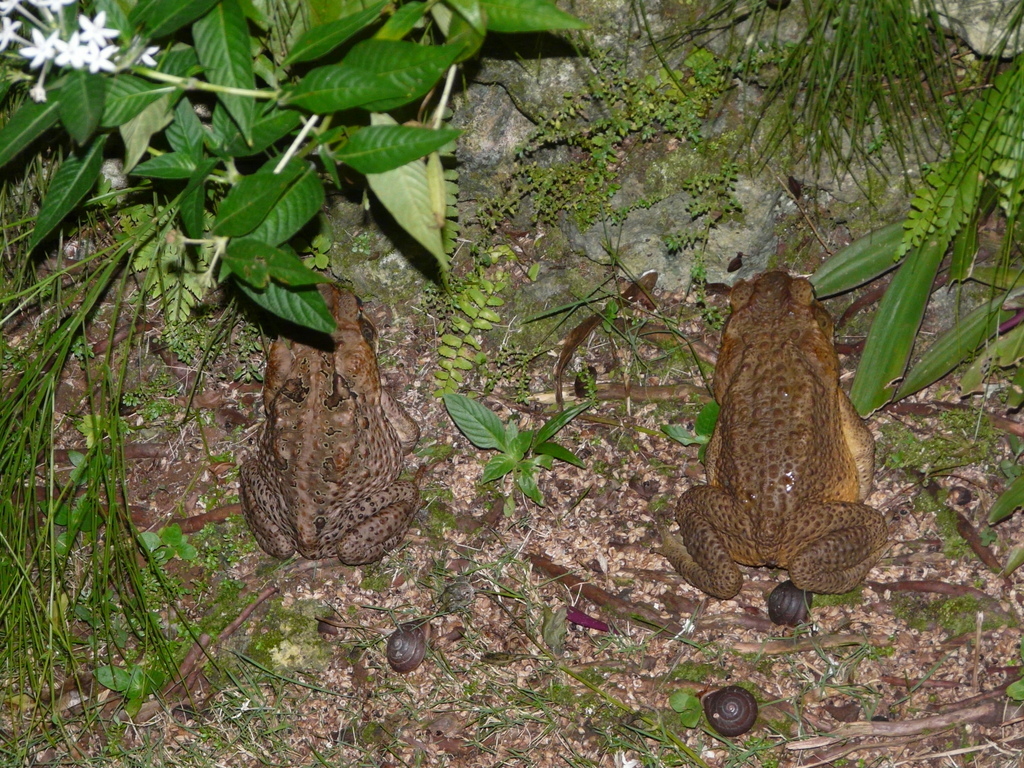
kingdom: Animalia
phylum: Chordata
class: Amphibia
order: Anura
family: Bufonidae
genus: Rhinella
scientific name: Rhinella marina
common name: Cane toad
